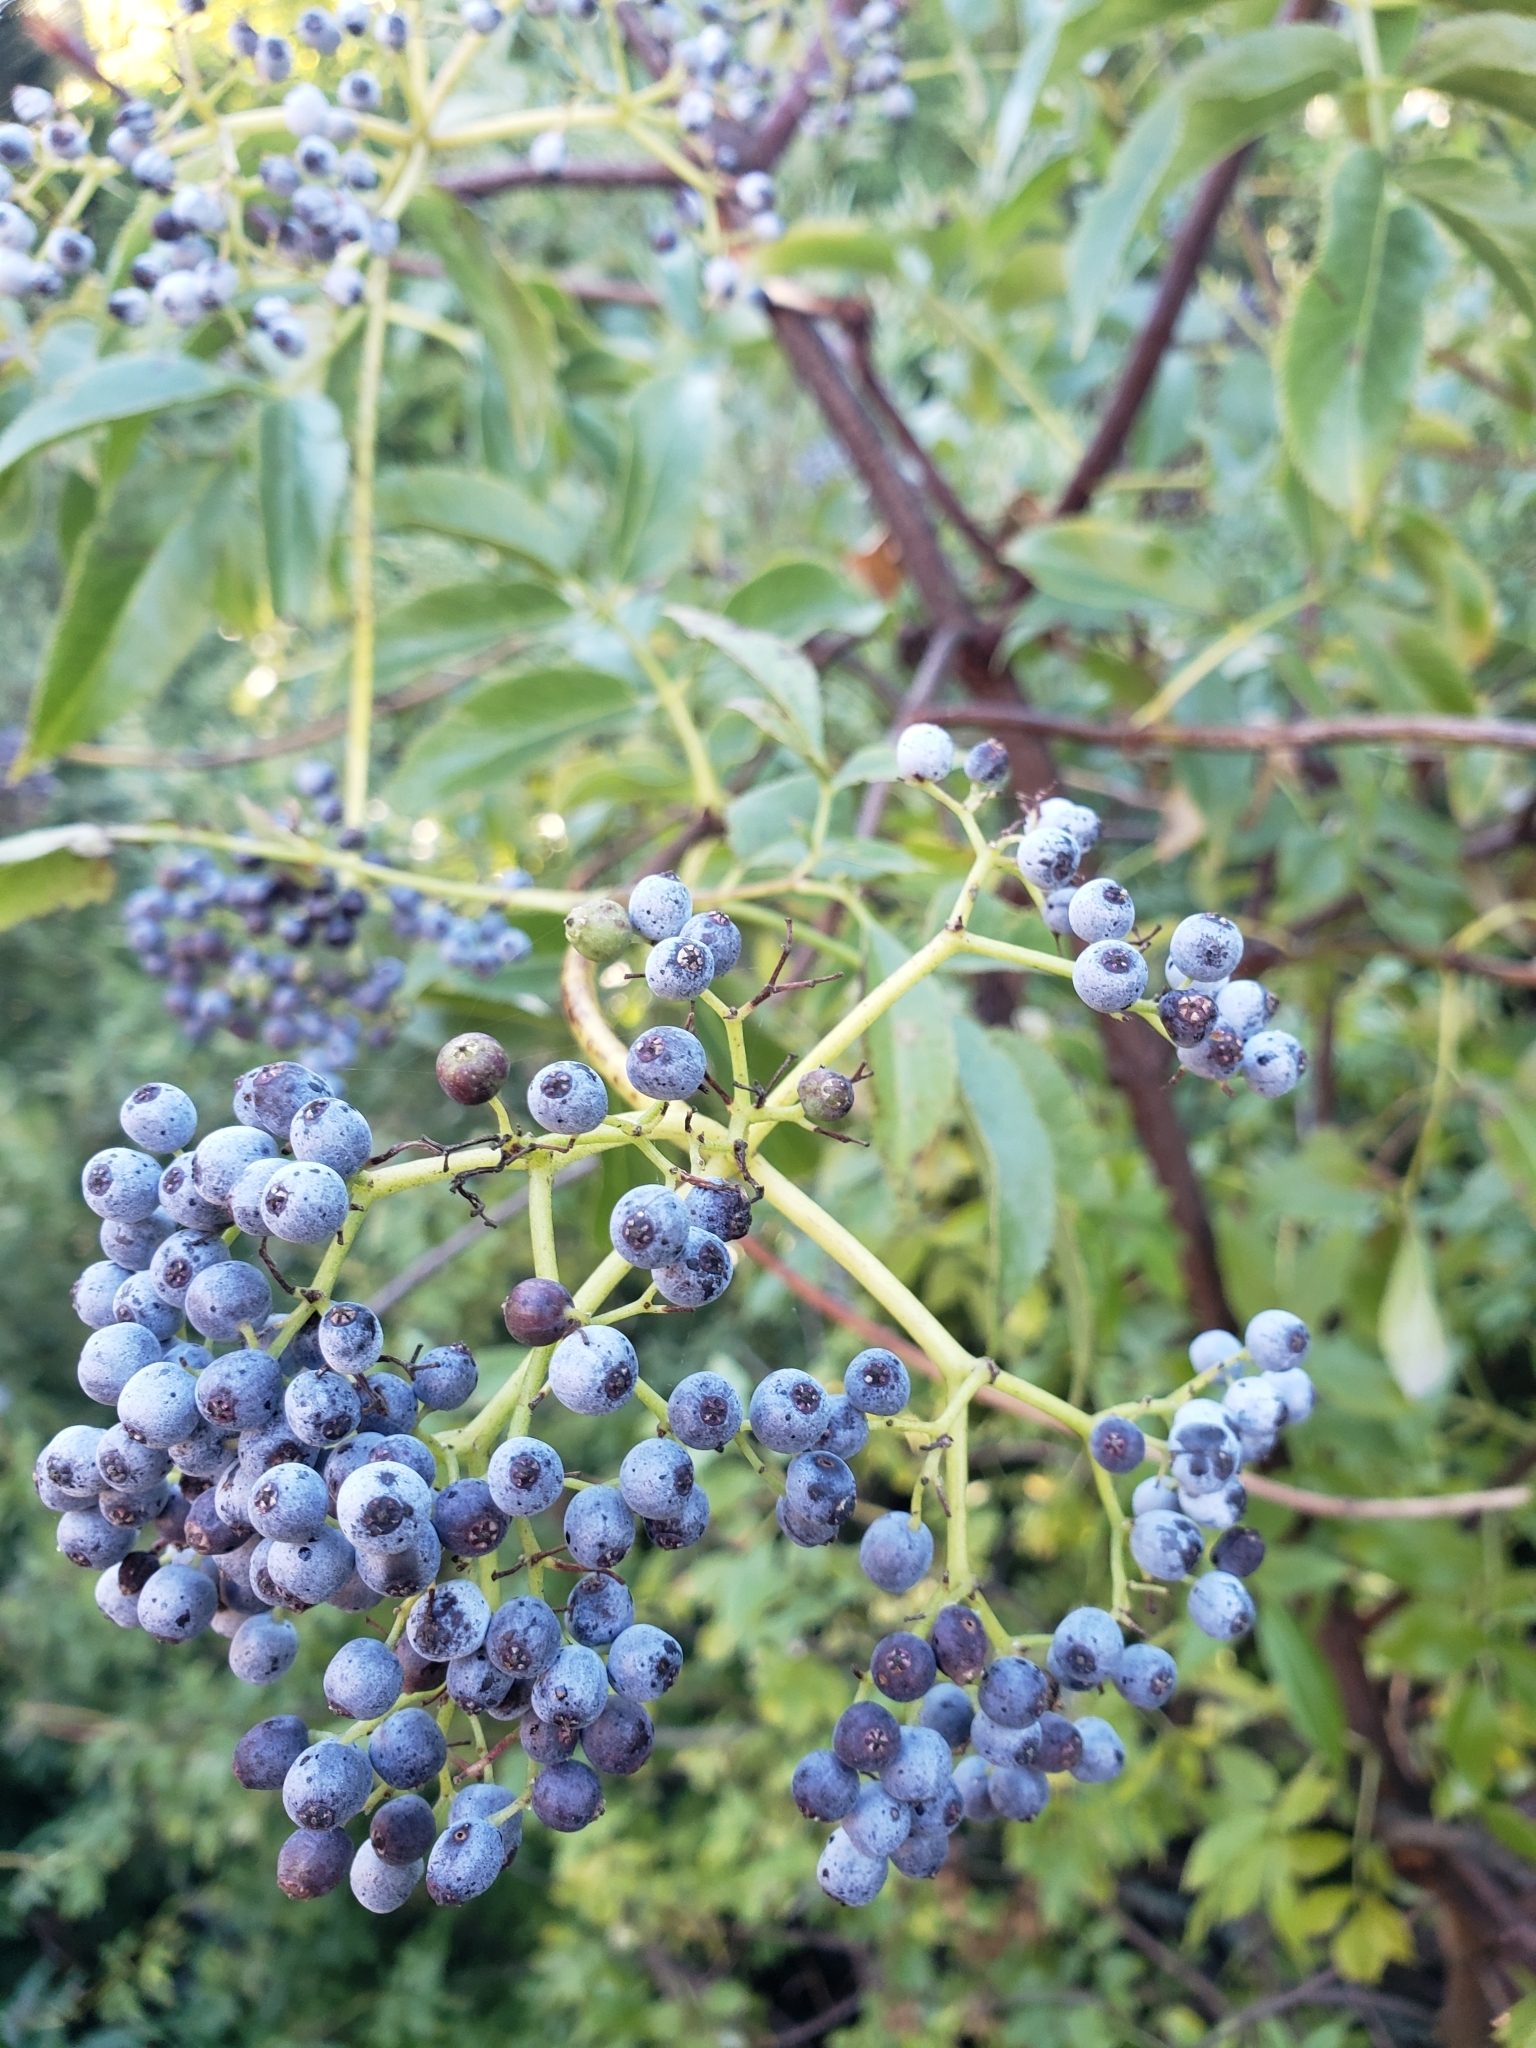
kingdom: Plantae
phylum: Tracheophyta
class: Magnoliopsida
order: Dipsacales
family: Viburnaceae
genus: Sambucus
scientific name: Sambucus cerulea
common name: Blue elder
